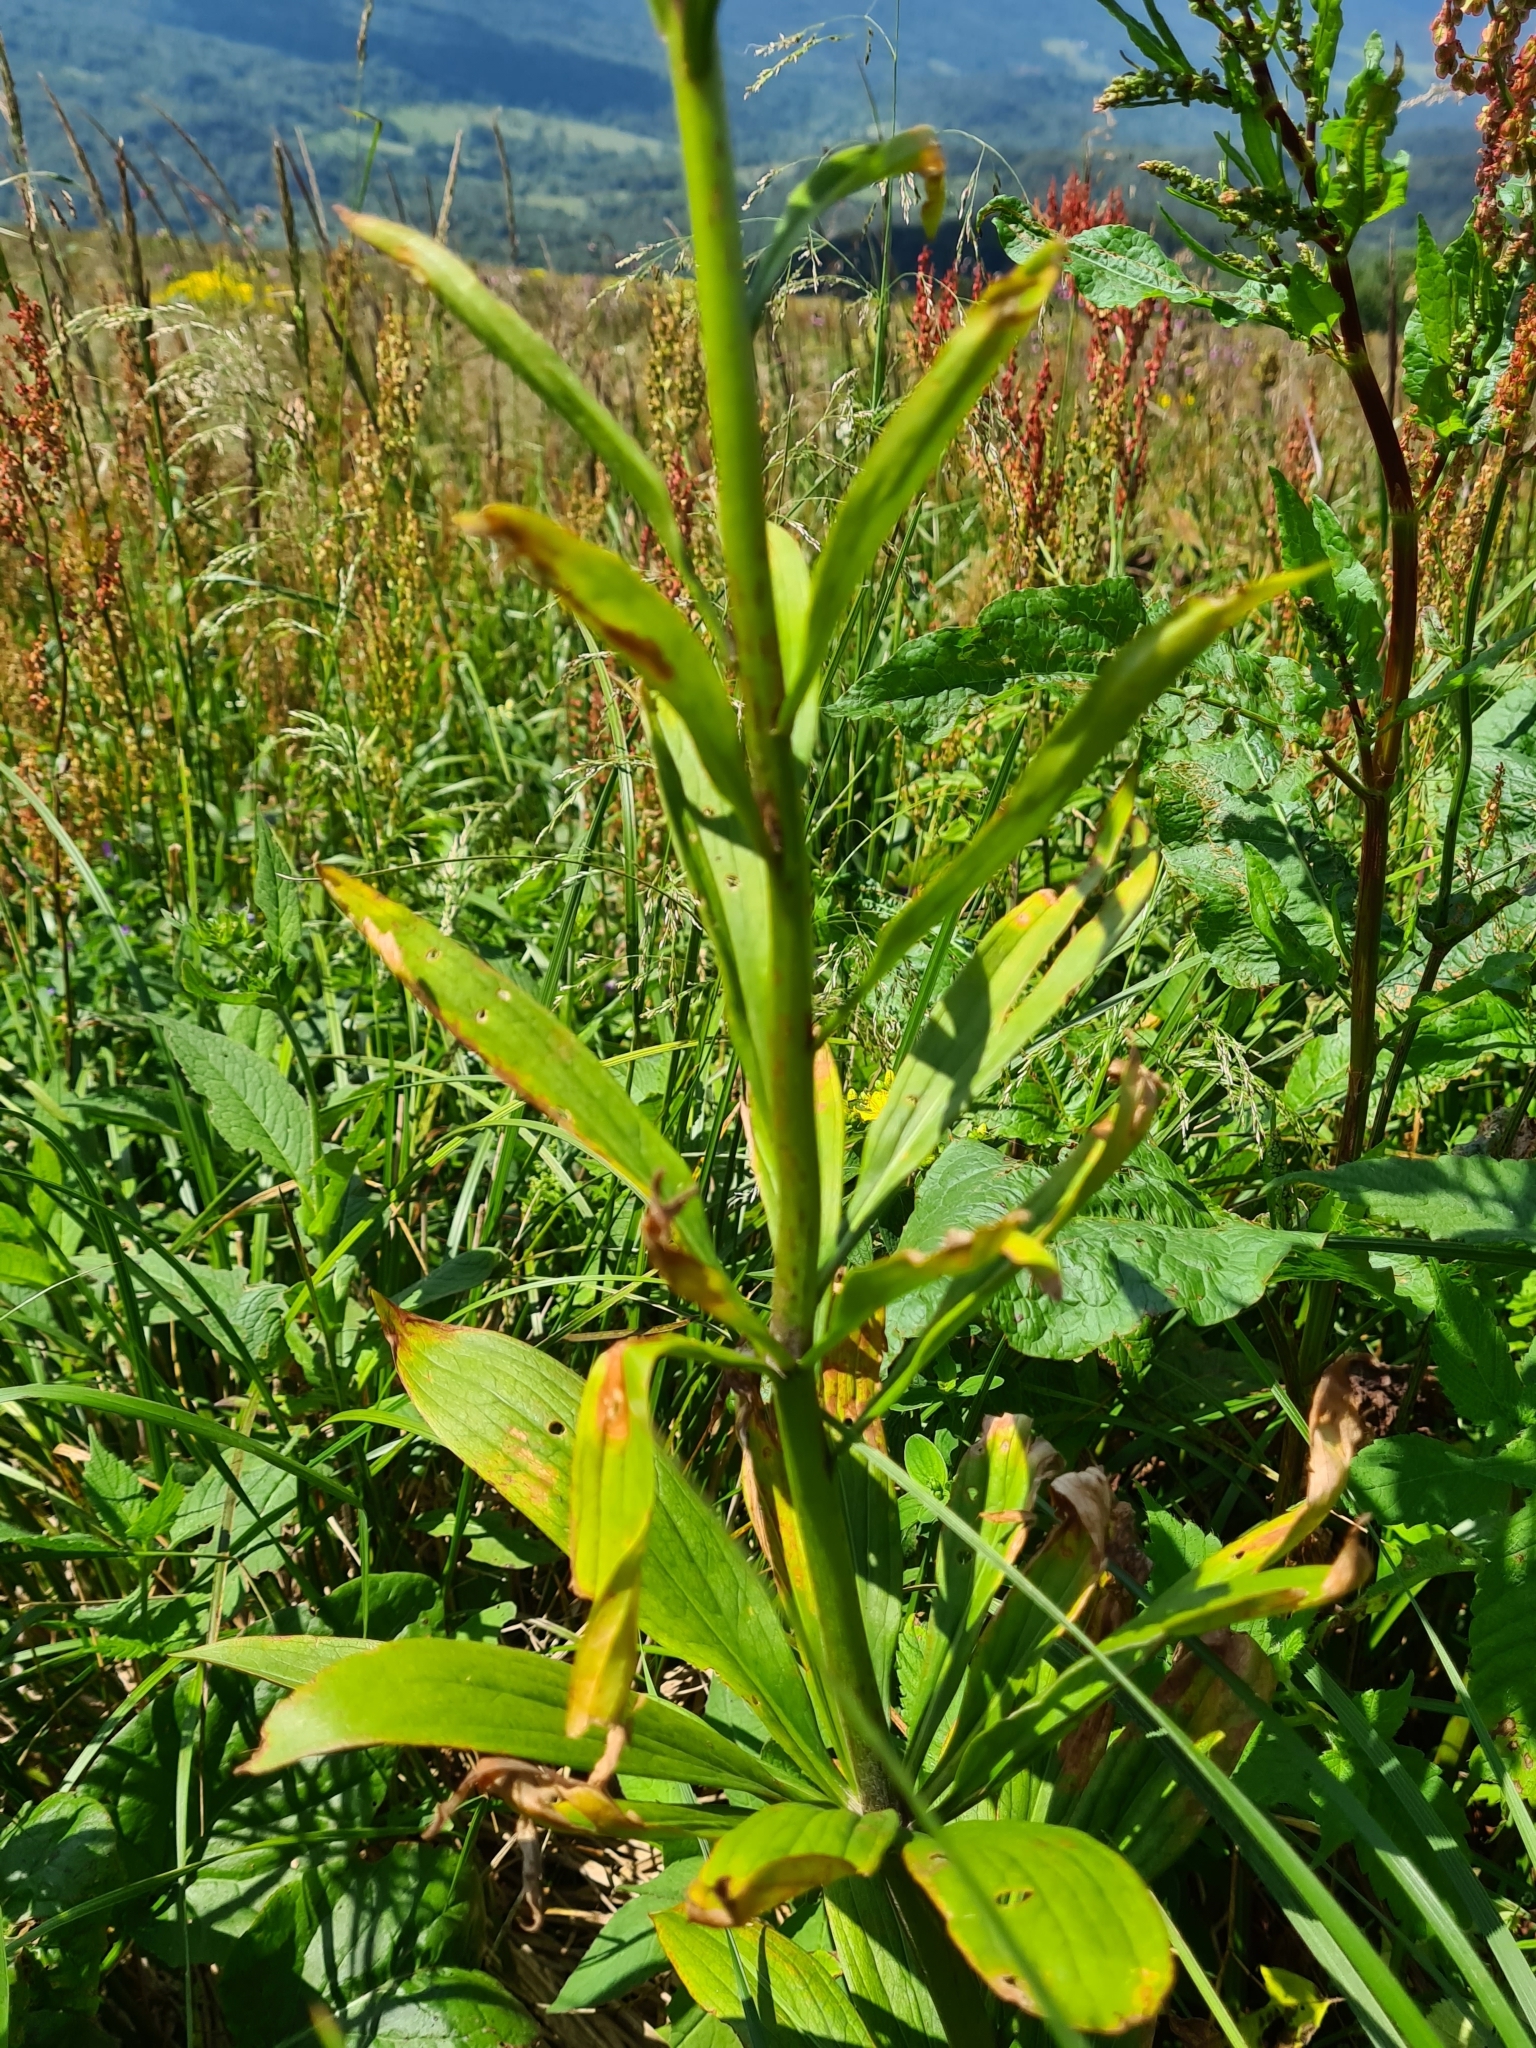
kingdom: Plantae
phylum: Tracheophyta
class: Liliopsida
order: Liliales
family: Liliaceae
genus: Lilium
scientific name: Lilium martagon
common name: Martagon lily
